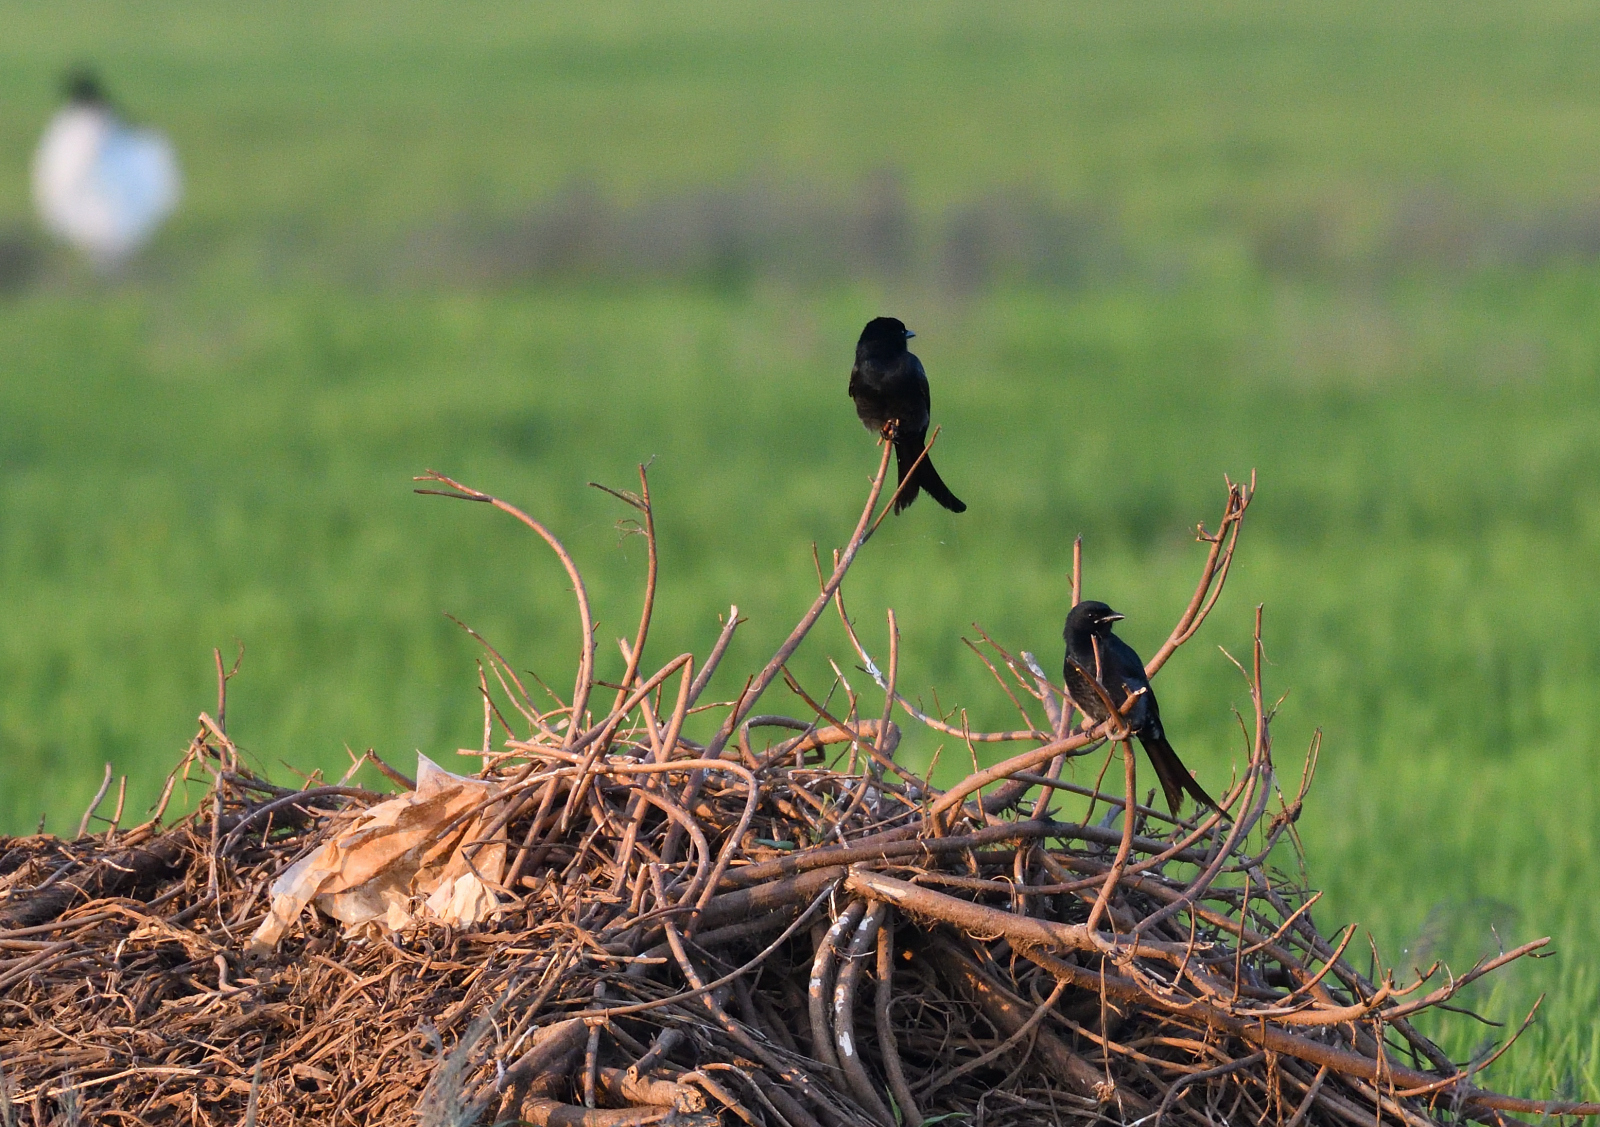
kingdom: Animalia
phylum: Chordata
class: Aves
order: Passeriformes
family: Dicruridae
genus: Dicrurus
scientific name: Dicrurus macrocercus
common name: Black drongo
